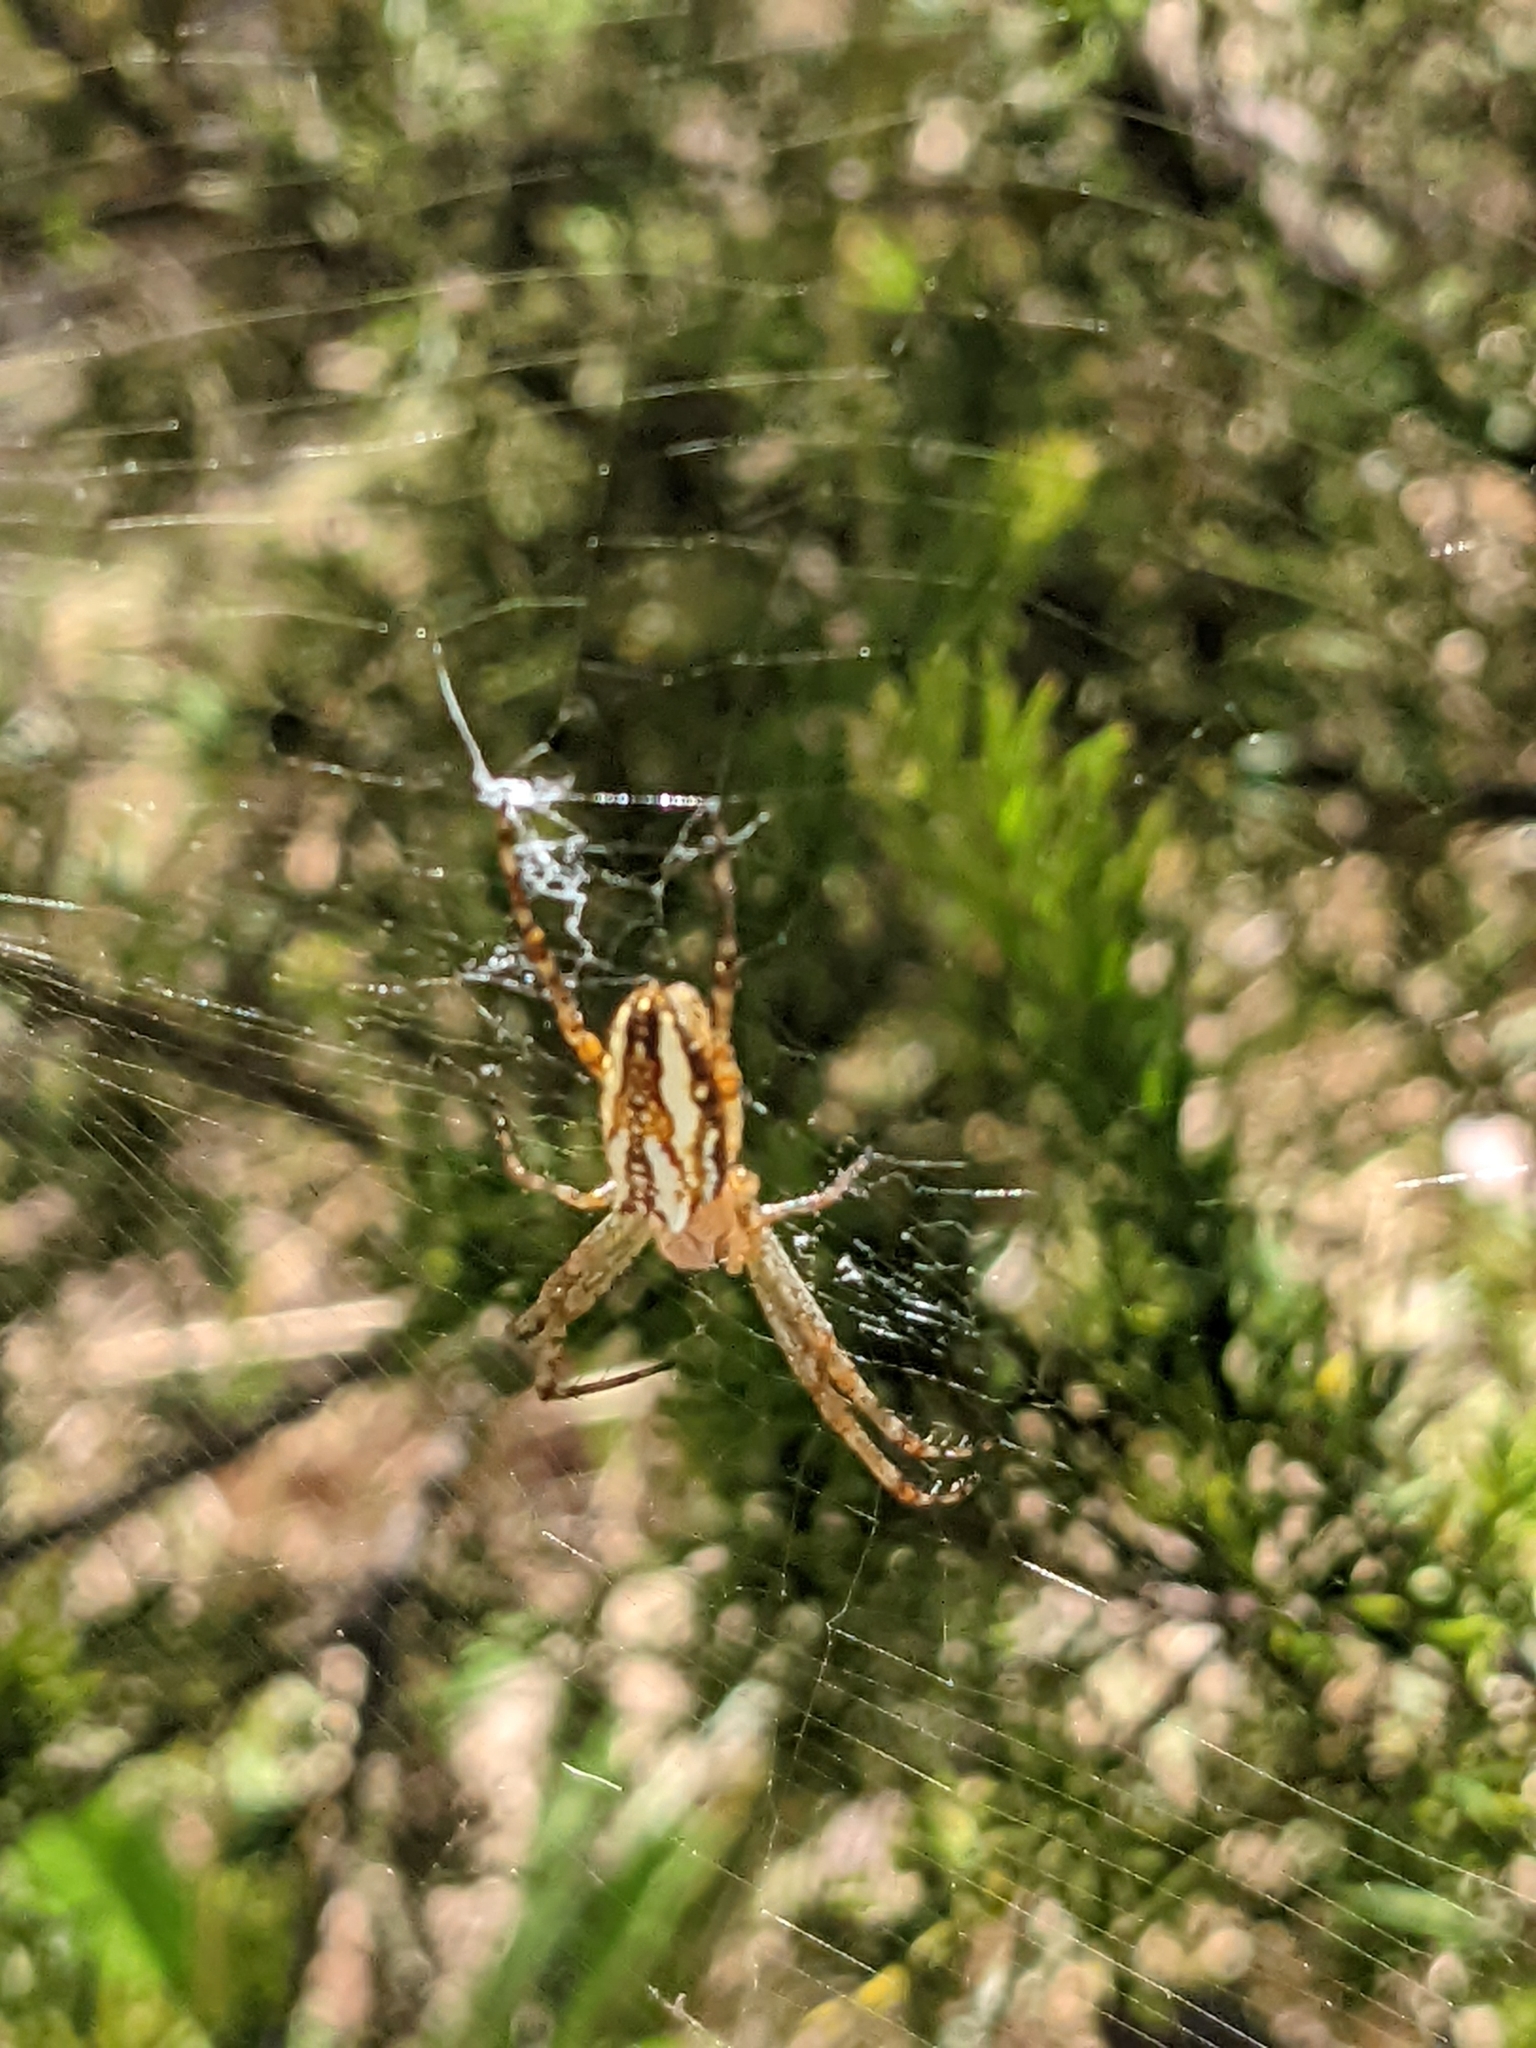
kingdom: Animalia
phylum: Arthropoda
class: Arachnida
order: Araneae
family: Araneidae
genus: Plebs
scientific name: Plebs bradleyi
